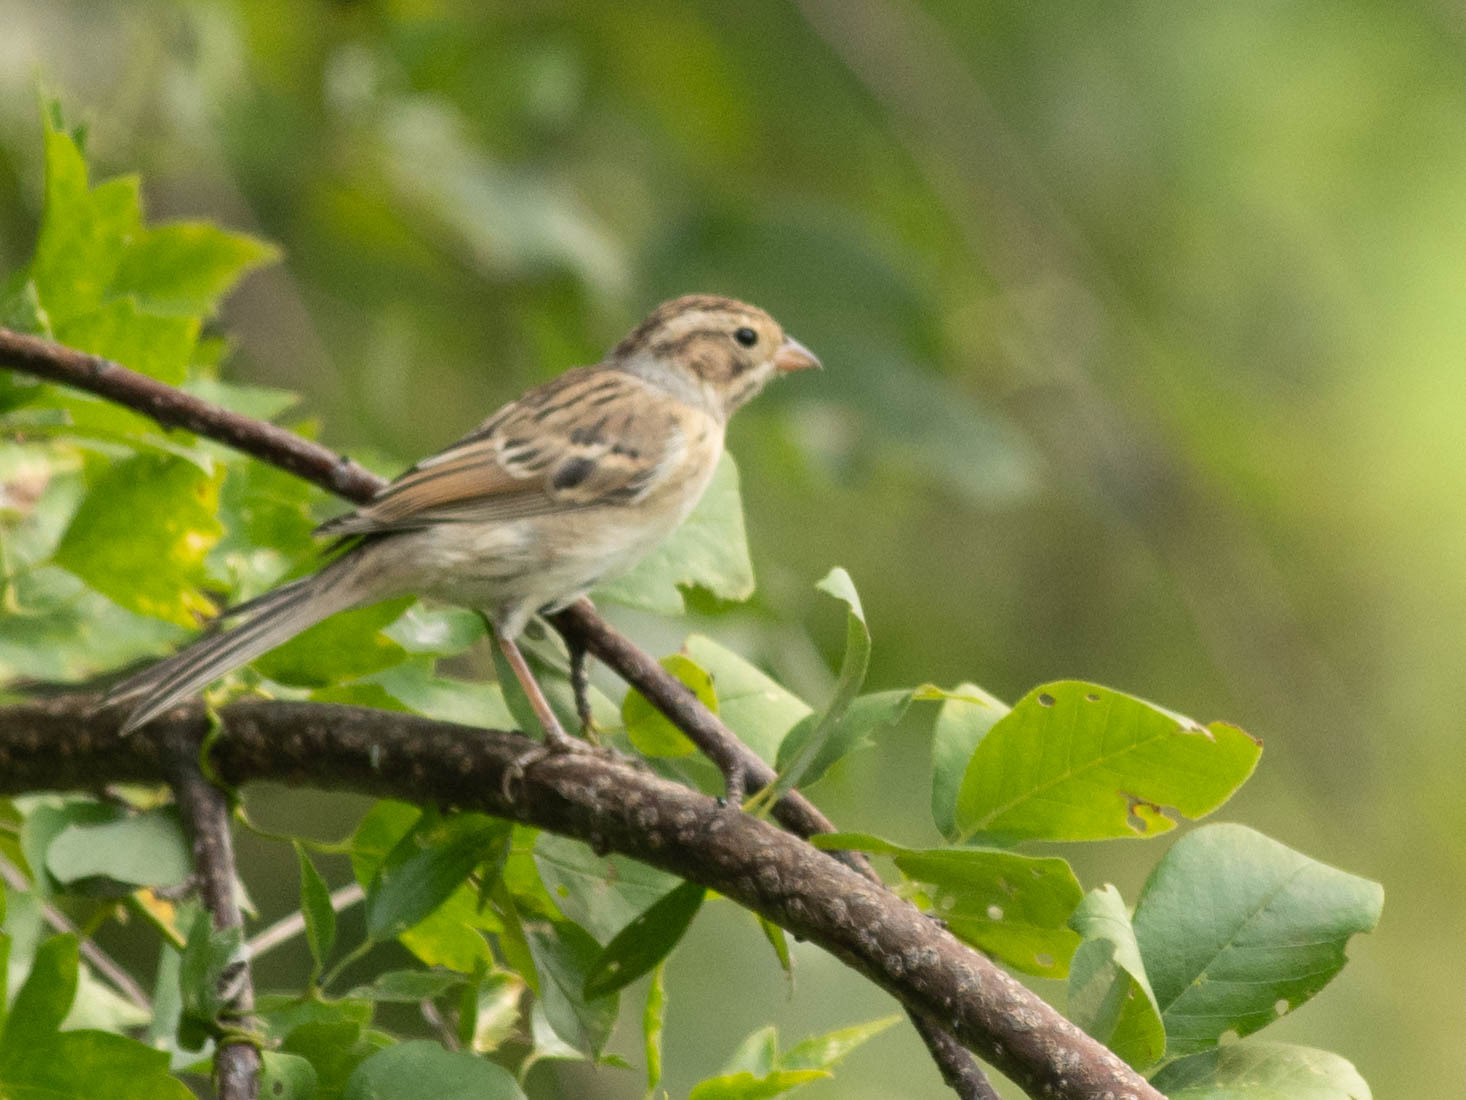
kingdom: Animalia
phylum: Chordata
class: Aves
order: Passeriformes
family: Passerellidae
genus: Spizella
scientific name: Spizella pallida
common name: Clay-colored sparrow
